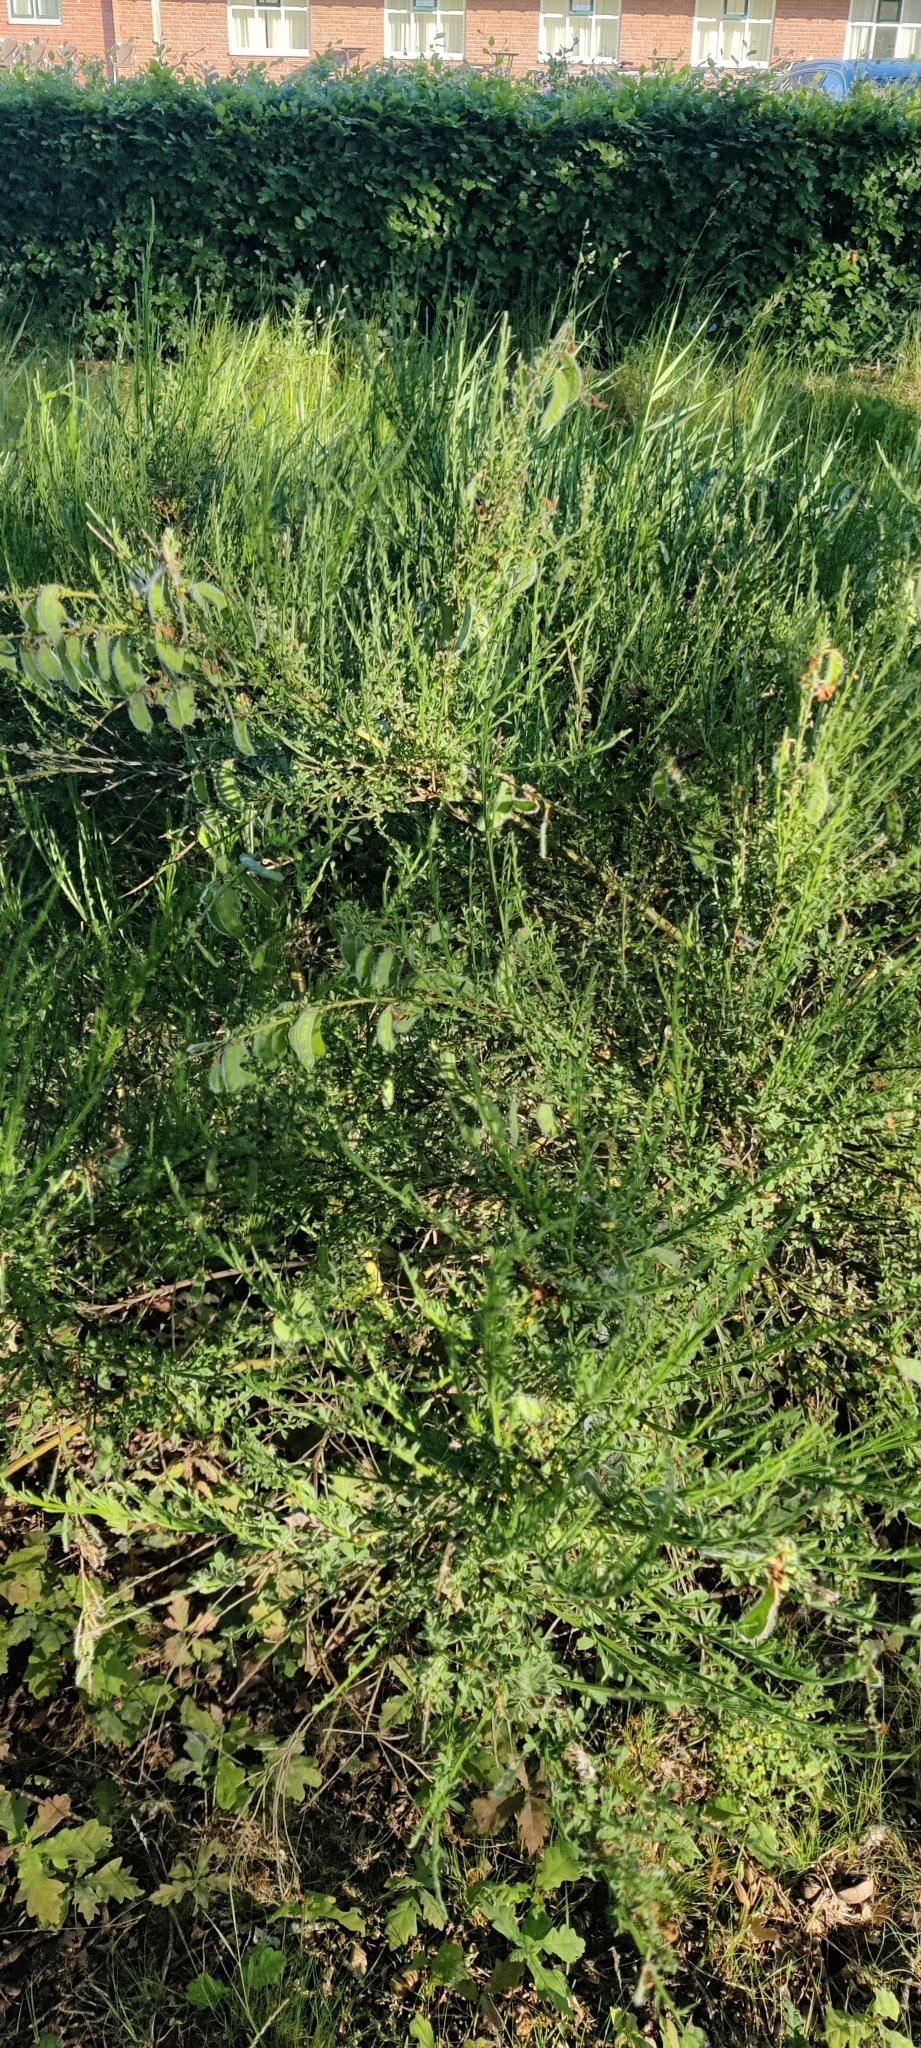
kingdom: Plantae
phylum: Tracheophyta
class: Magnoliopsida
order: Fabales
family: Fabaceae
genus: Cytisus
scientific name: Cytisus scoparius
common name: Scotch broom
